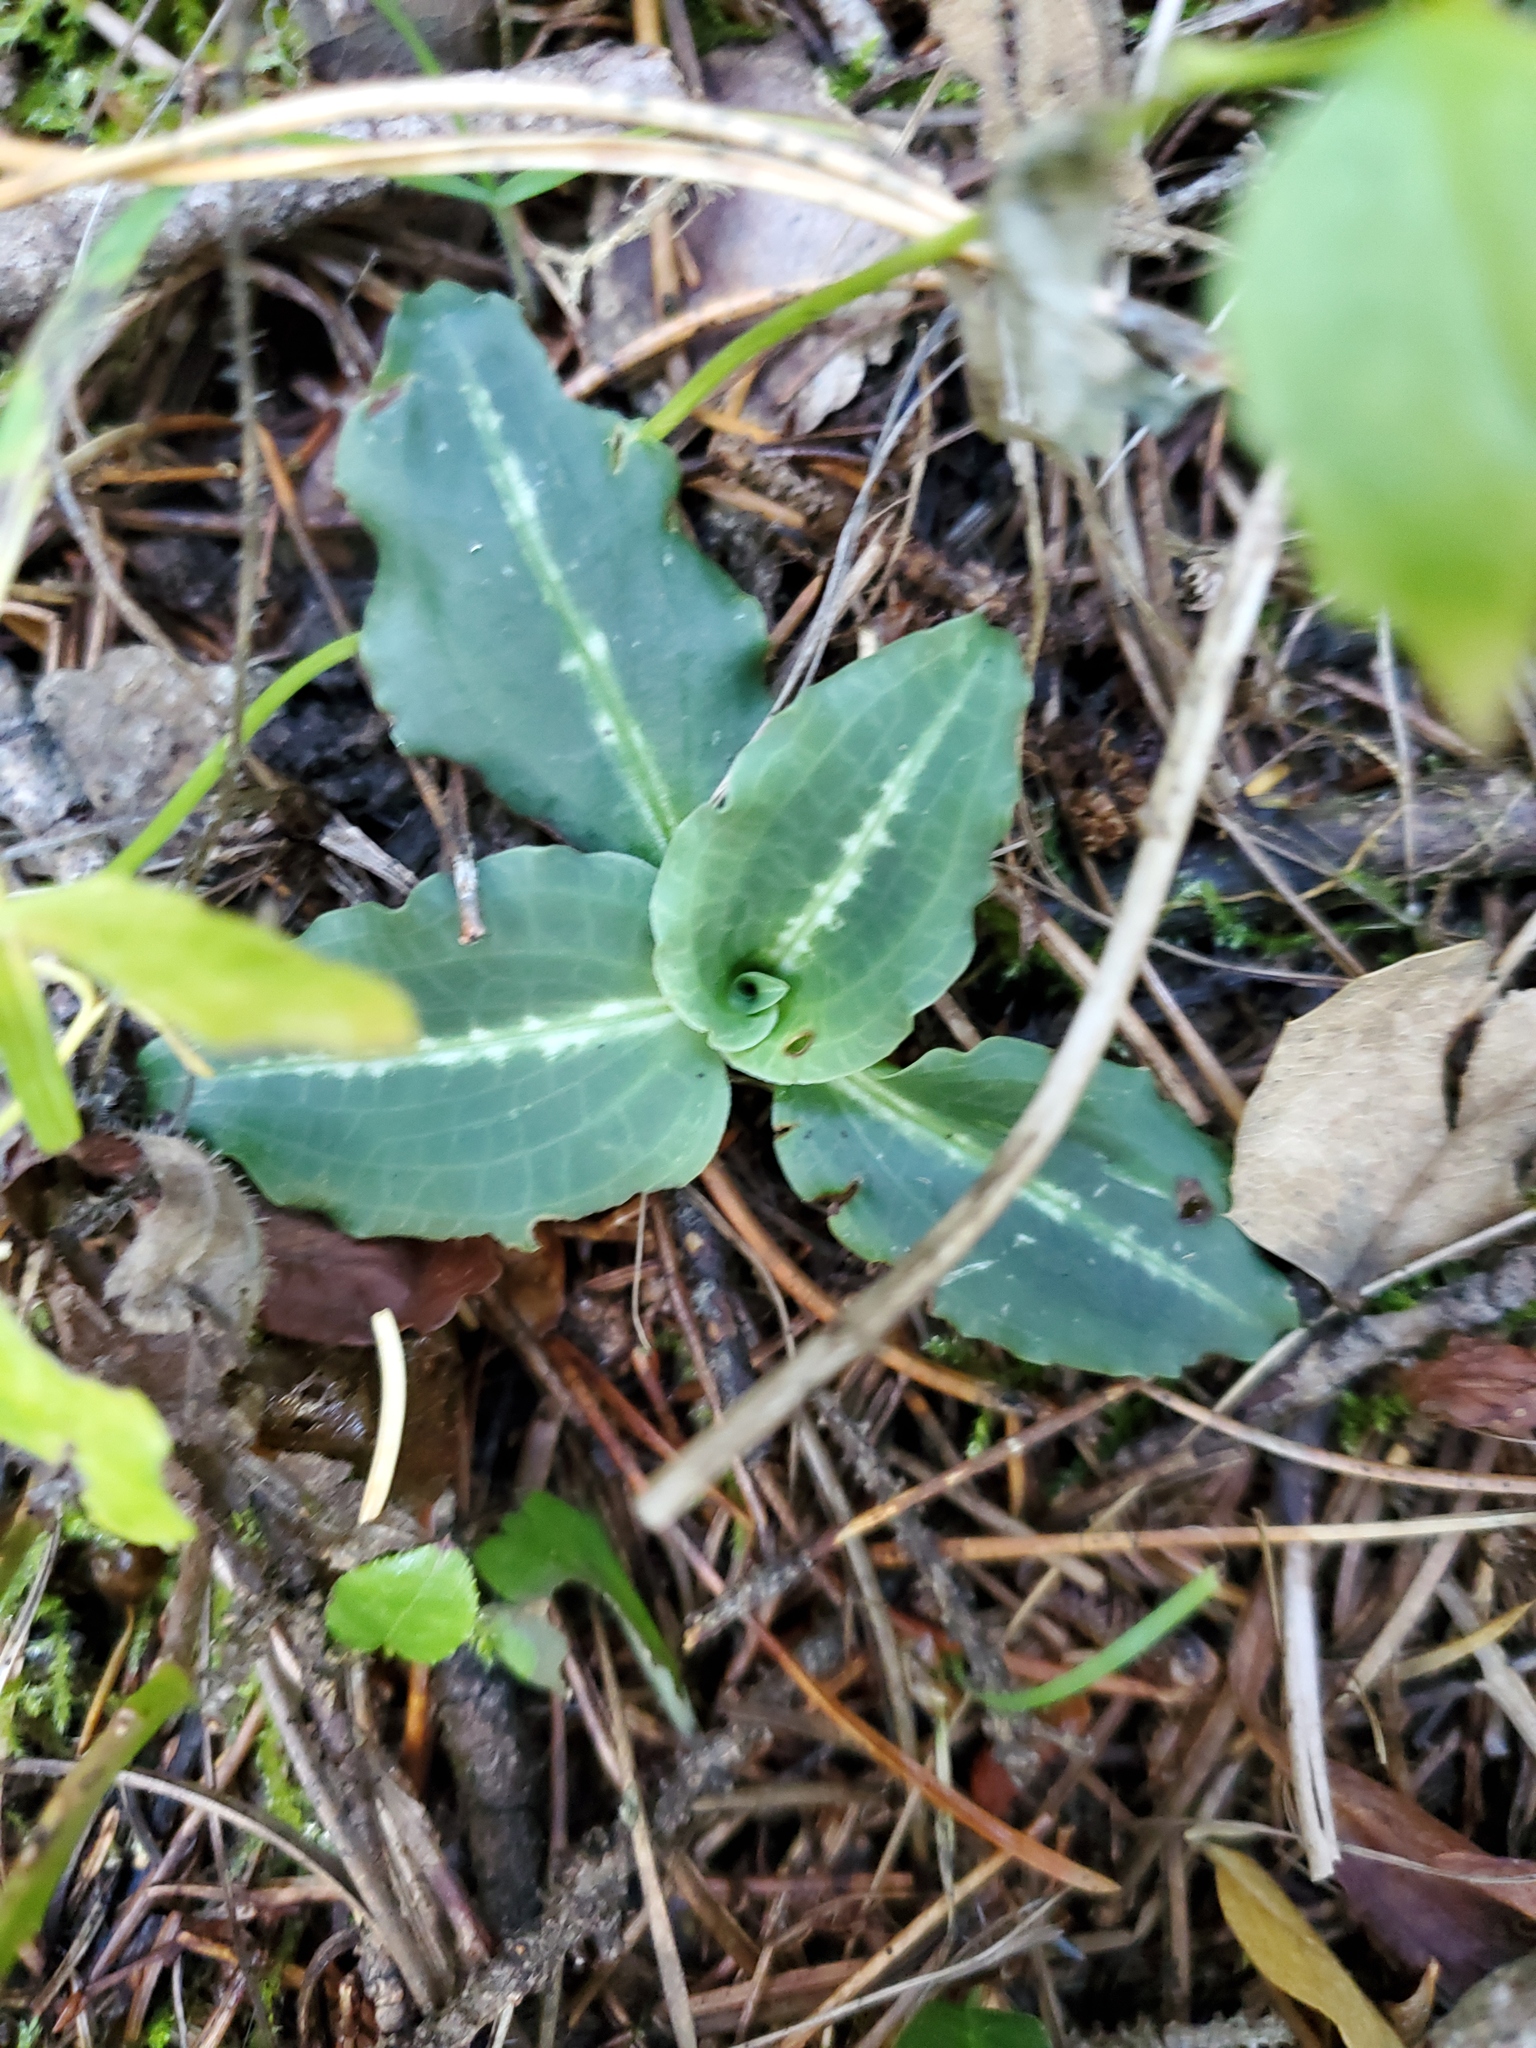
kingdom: Plantae
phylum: Tracheophyta
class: Liliopsida
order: Asparagales
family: Orchidaceae
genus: Goodyera
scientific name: Goodyera oblongifolia
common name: Giant rattlesnake-plantain
